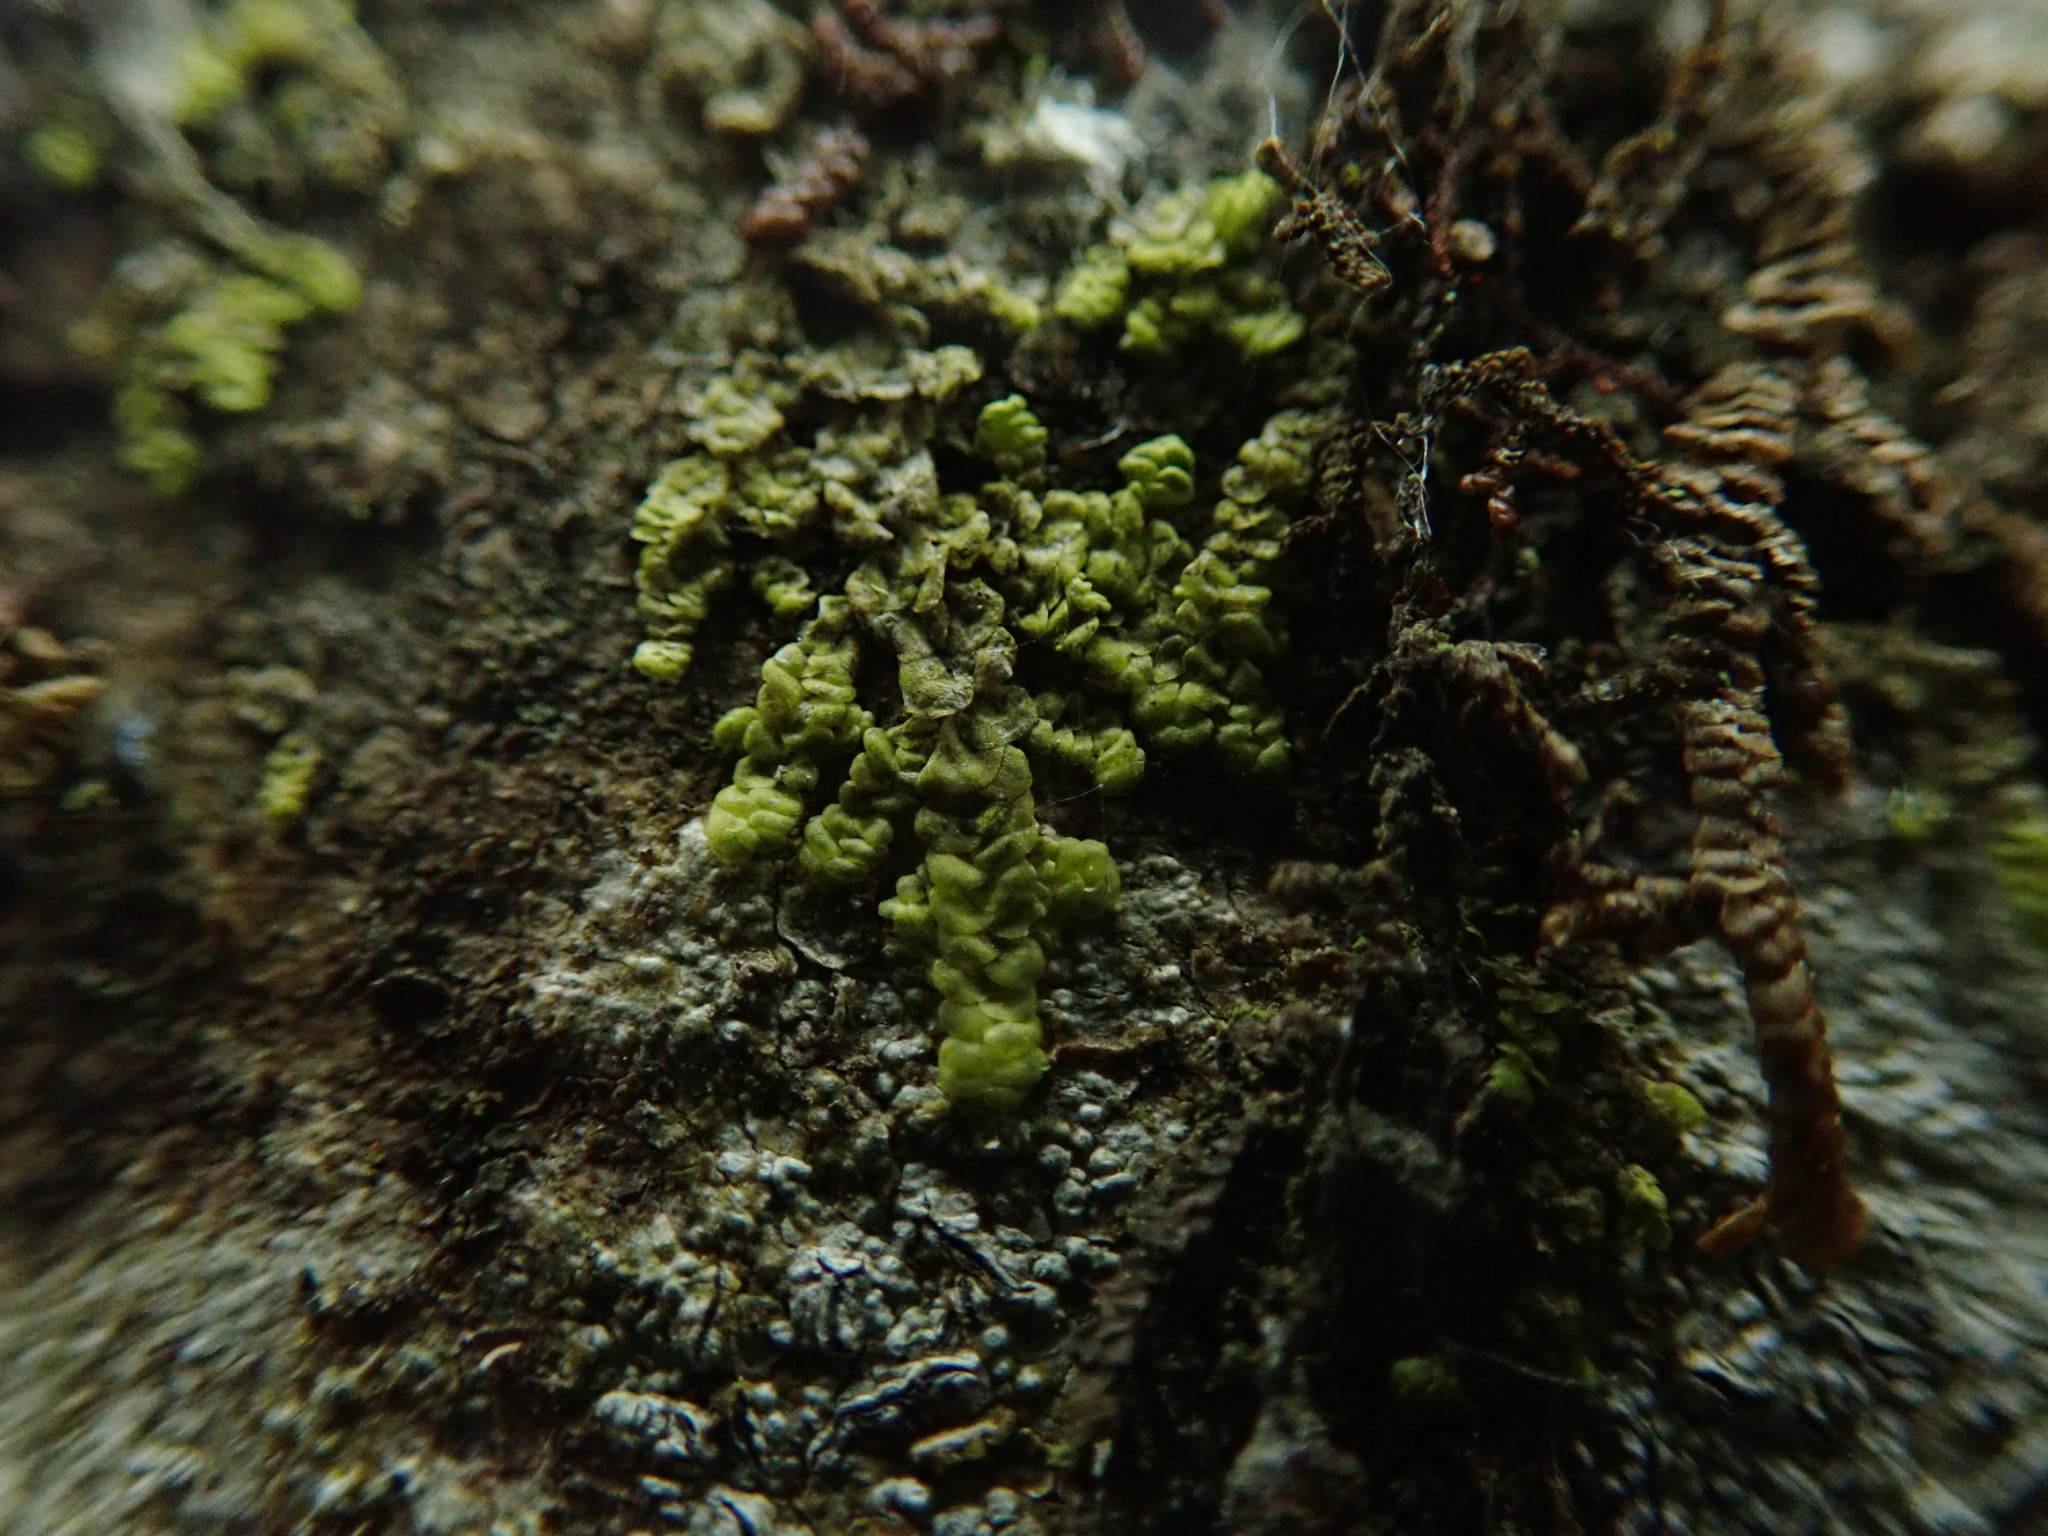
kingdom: Plantae
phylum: Marchantiophyta
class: Jungermanniopsida
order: Porellales
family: Radulaceae
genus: Radula
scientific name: Radula complanata
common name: Flat-leaved scalewort
